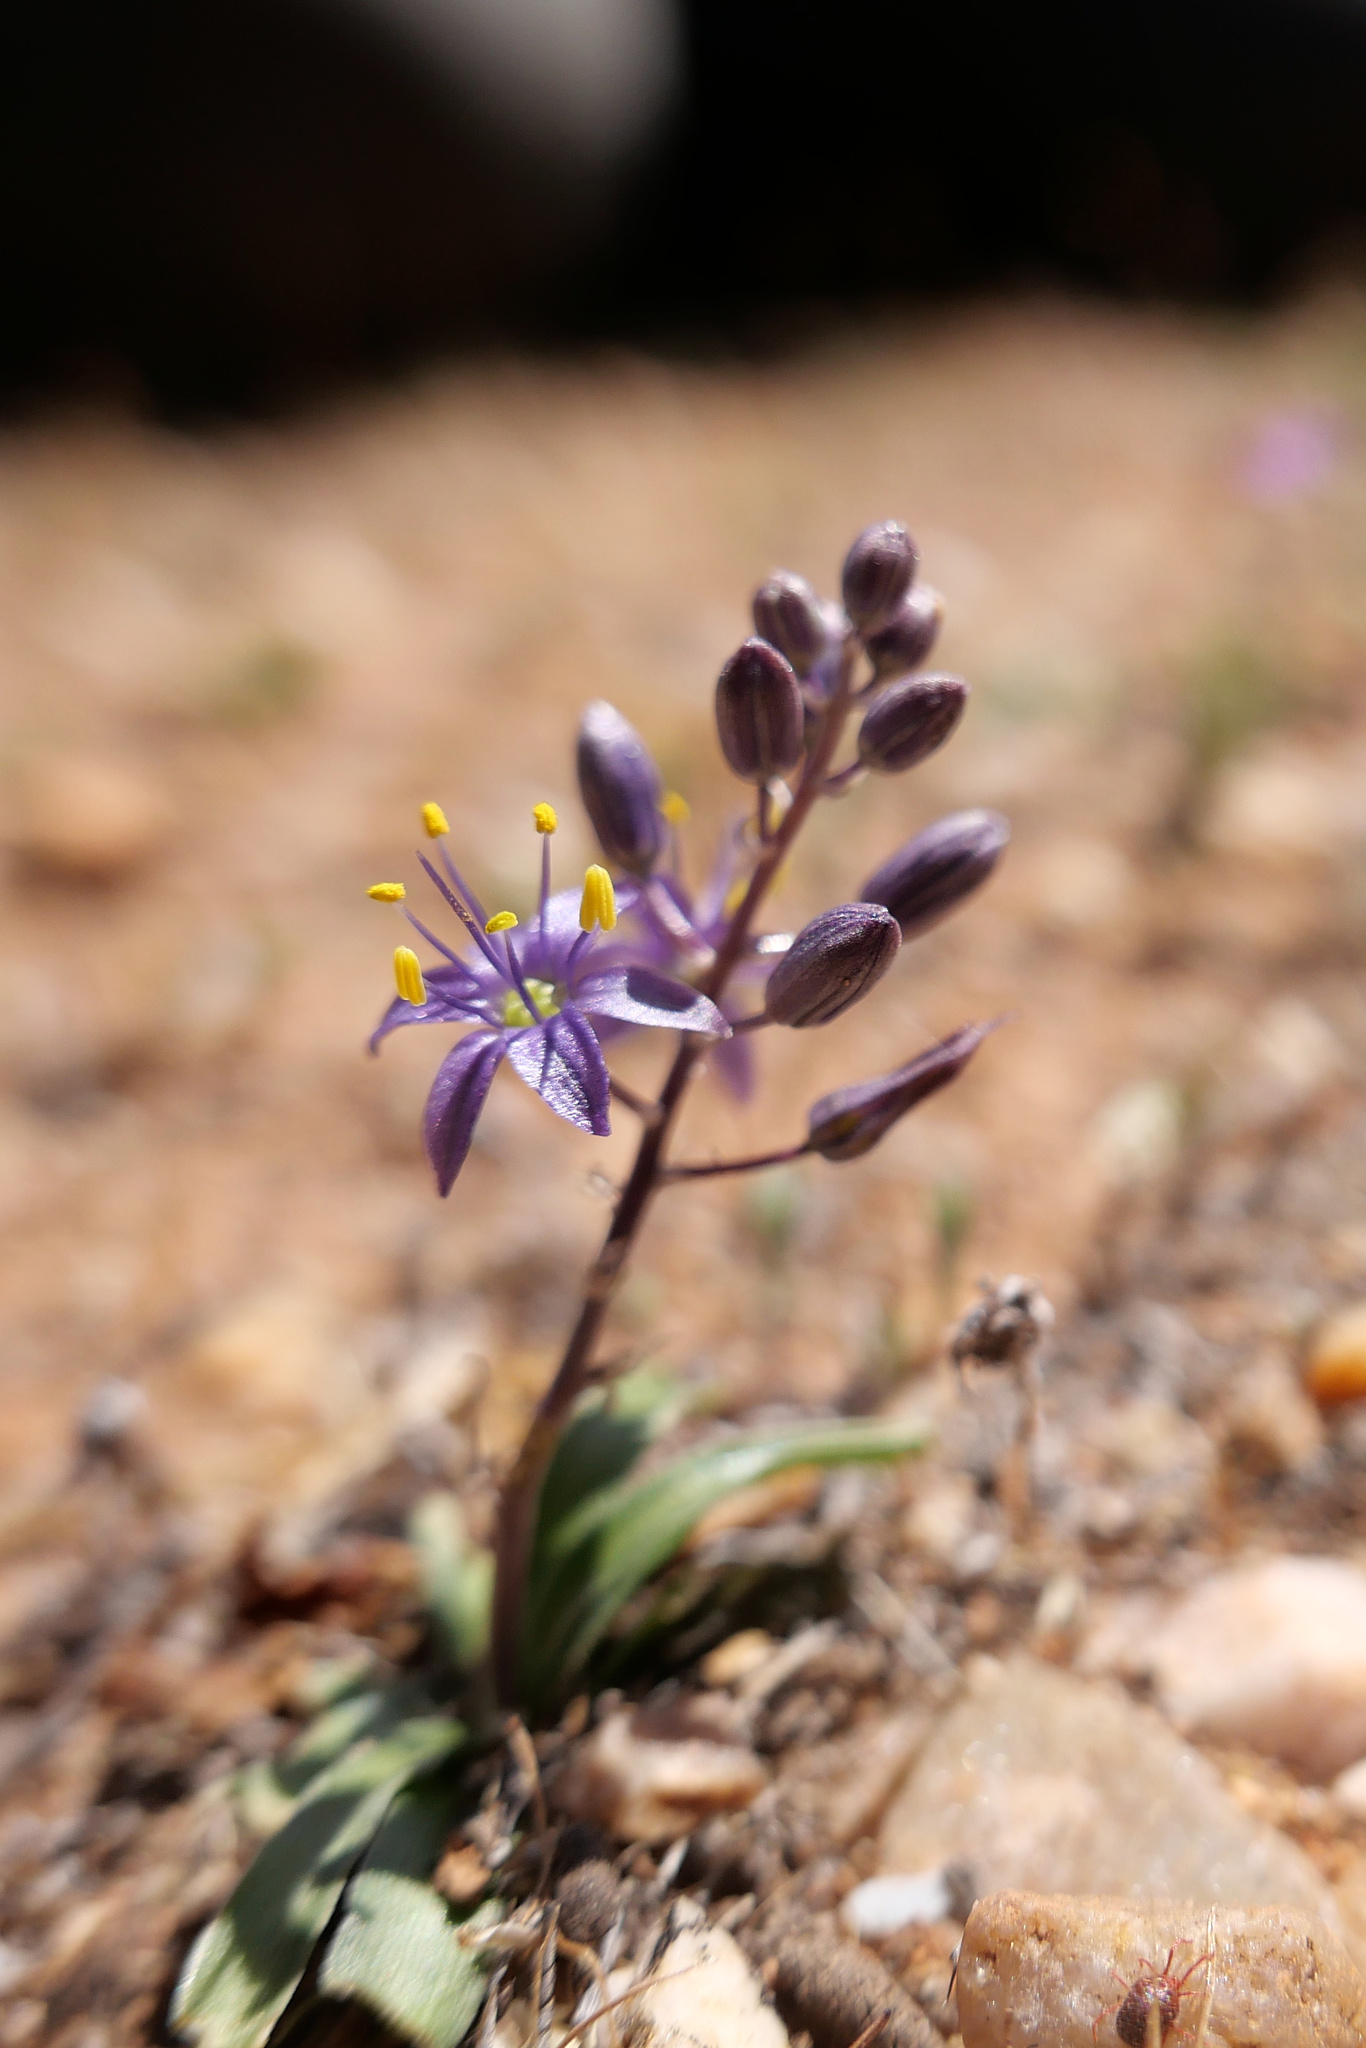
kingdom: Plantae
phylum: Tracheophyta
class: Liliopsida
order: Asparagales
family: Asparagaceae
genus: Hooveria
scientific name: Hooveria purpurea
